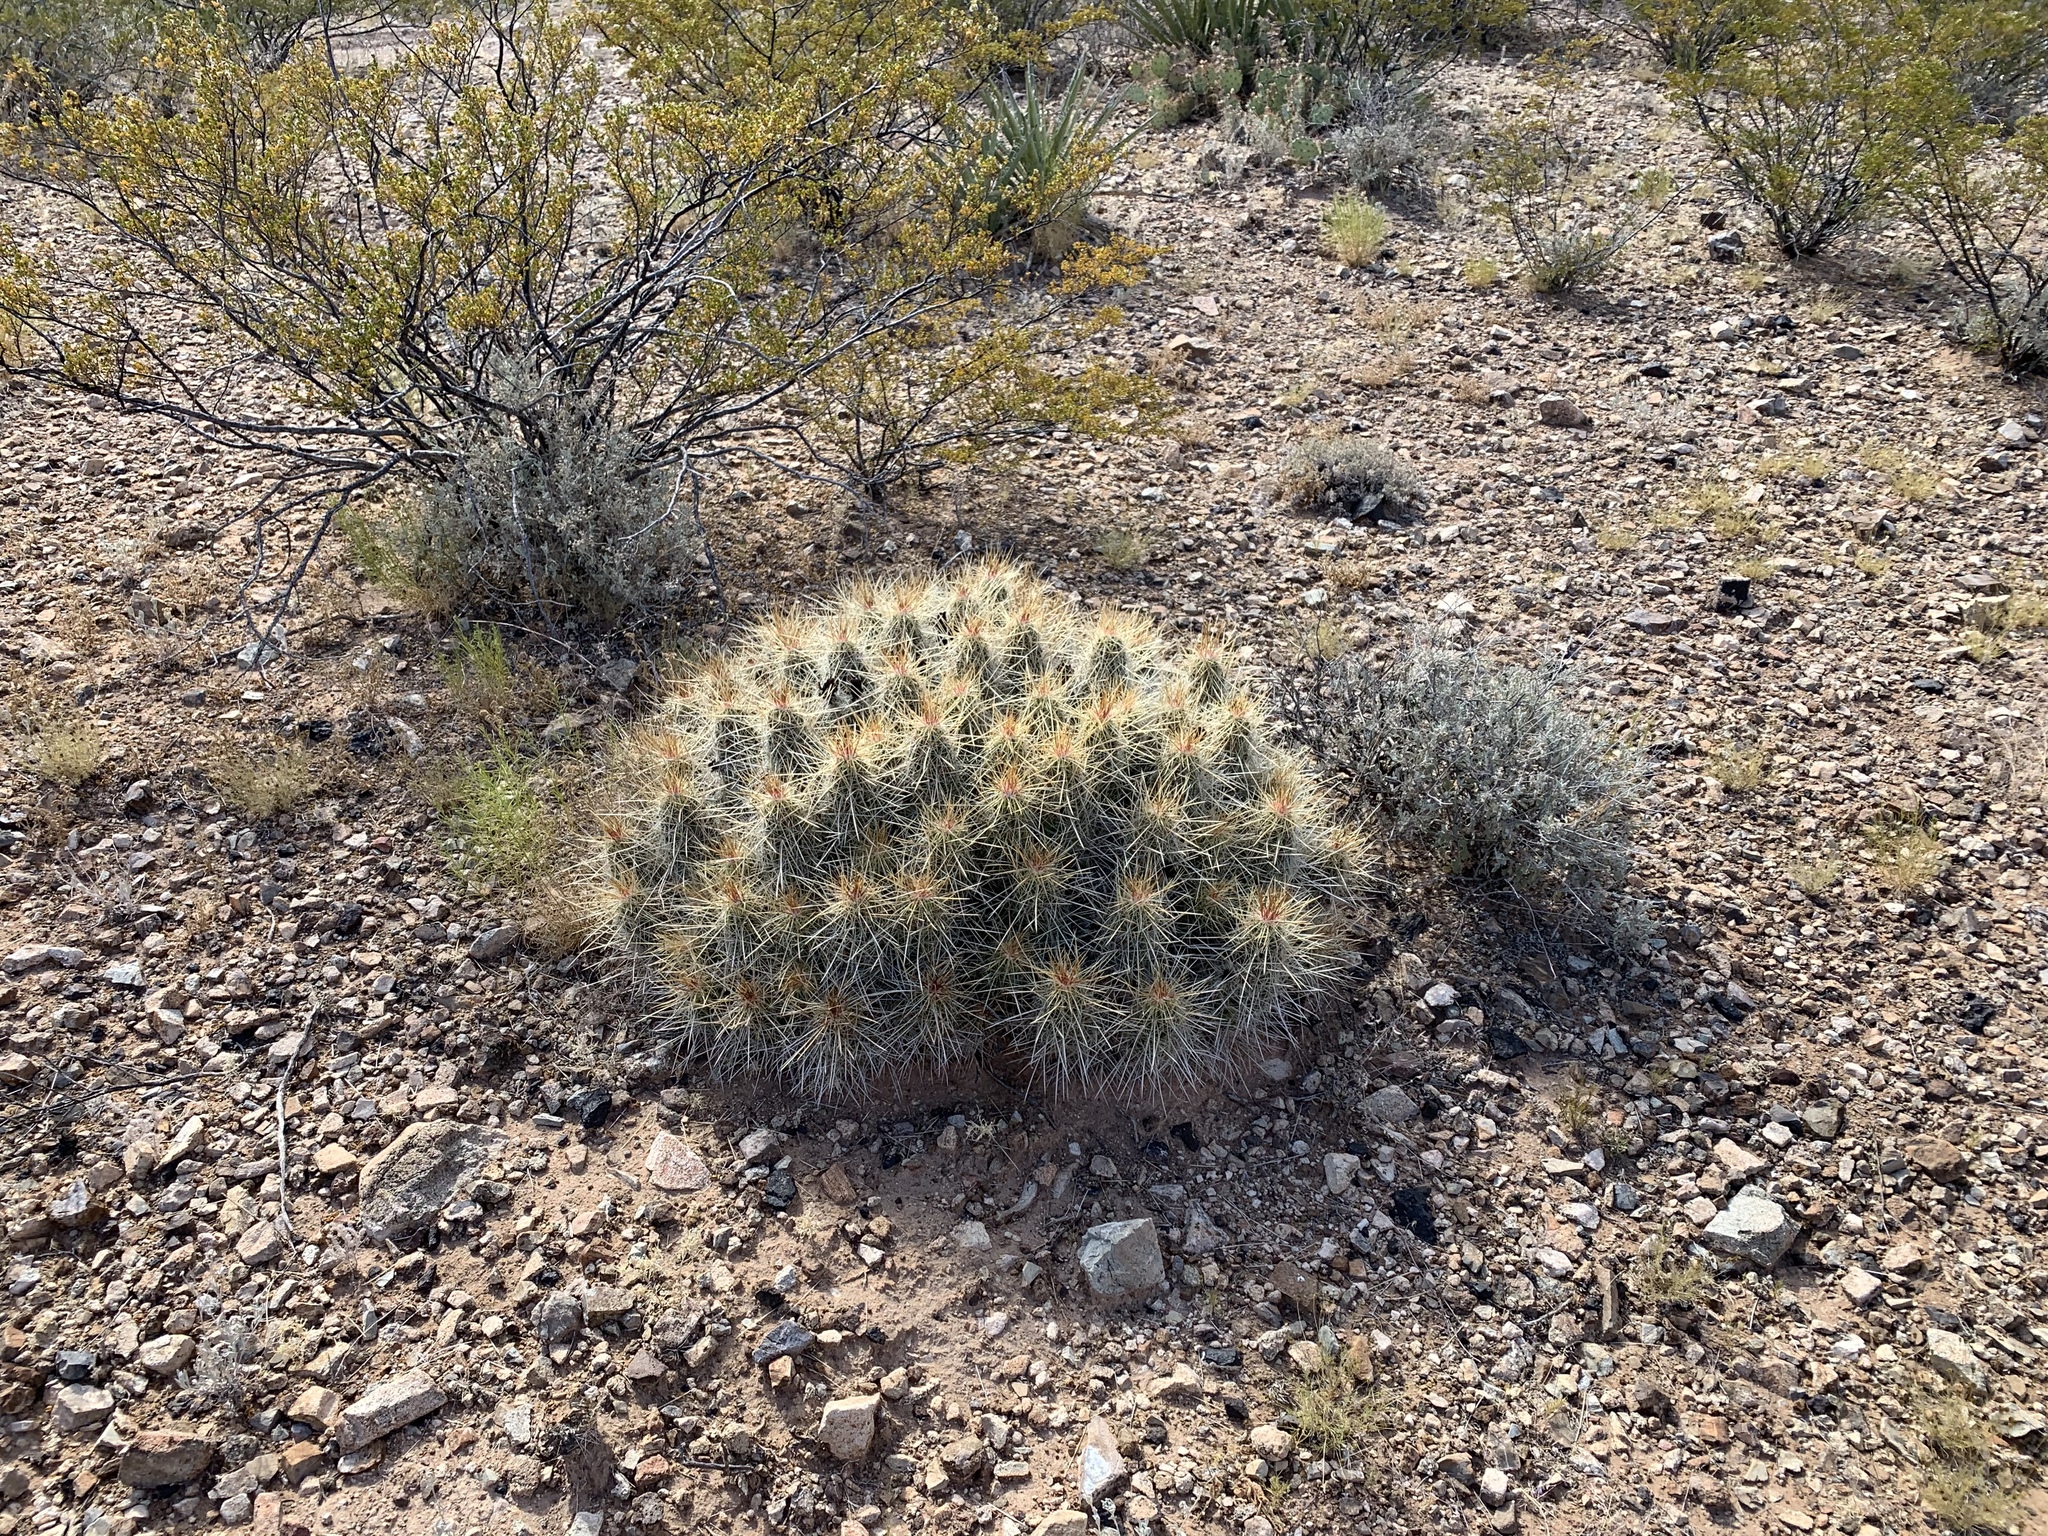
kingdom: Plantae
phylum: Tracheophyta
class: Magnoliopsida
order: Caryophyllales
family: Cactaceae
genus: Echinocereus
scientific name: Echinocereus stramineus
